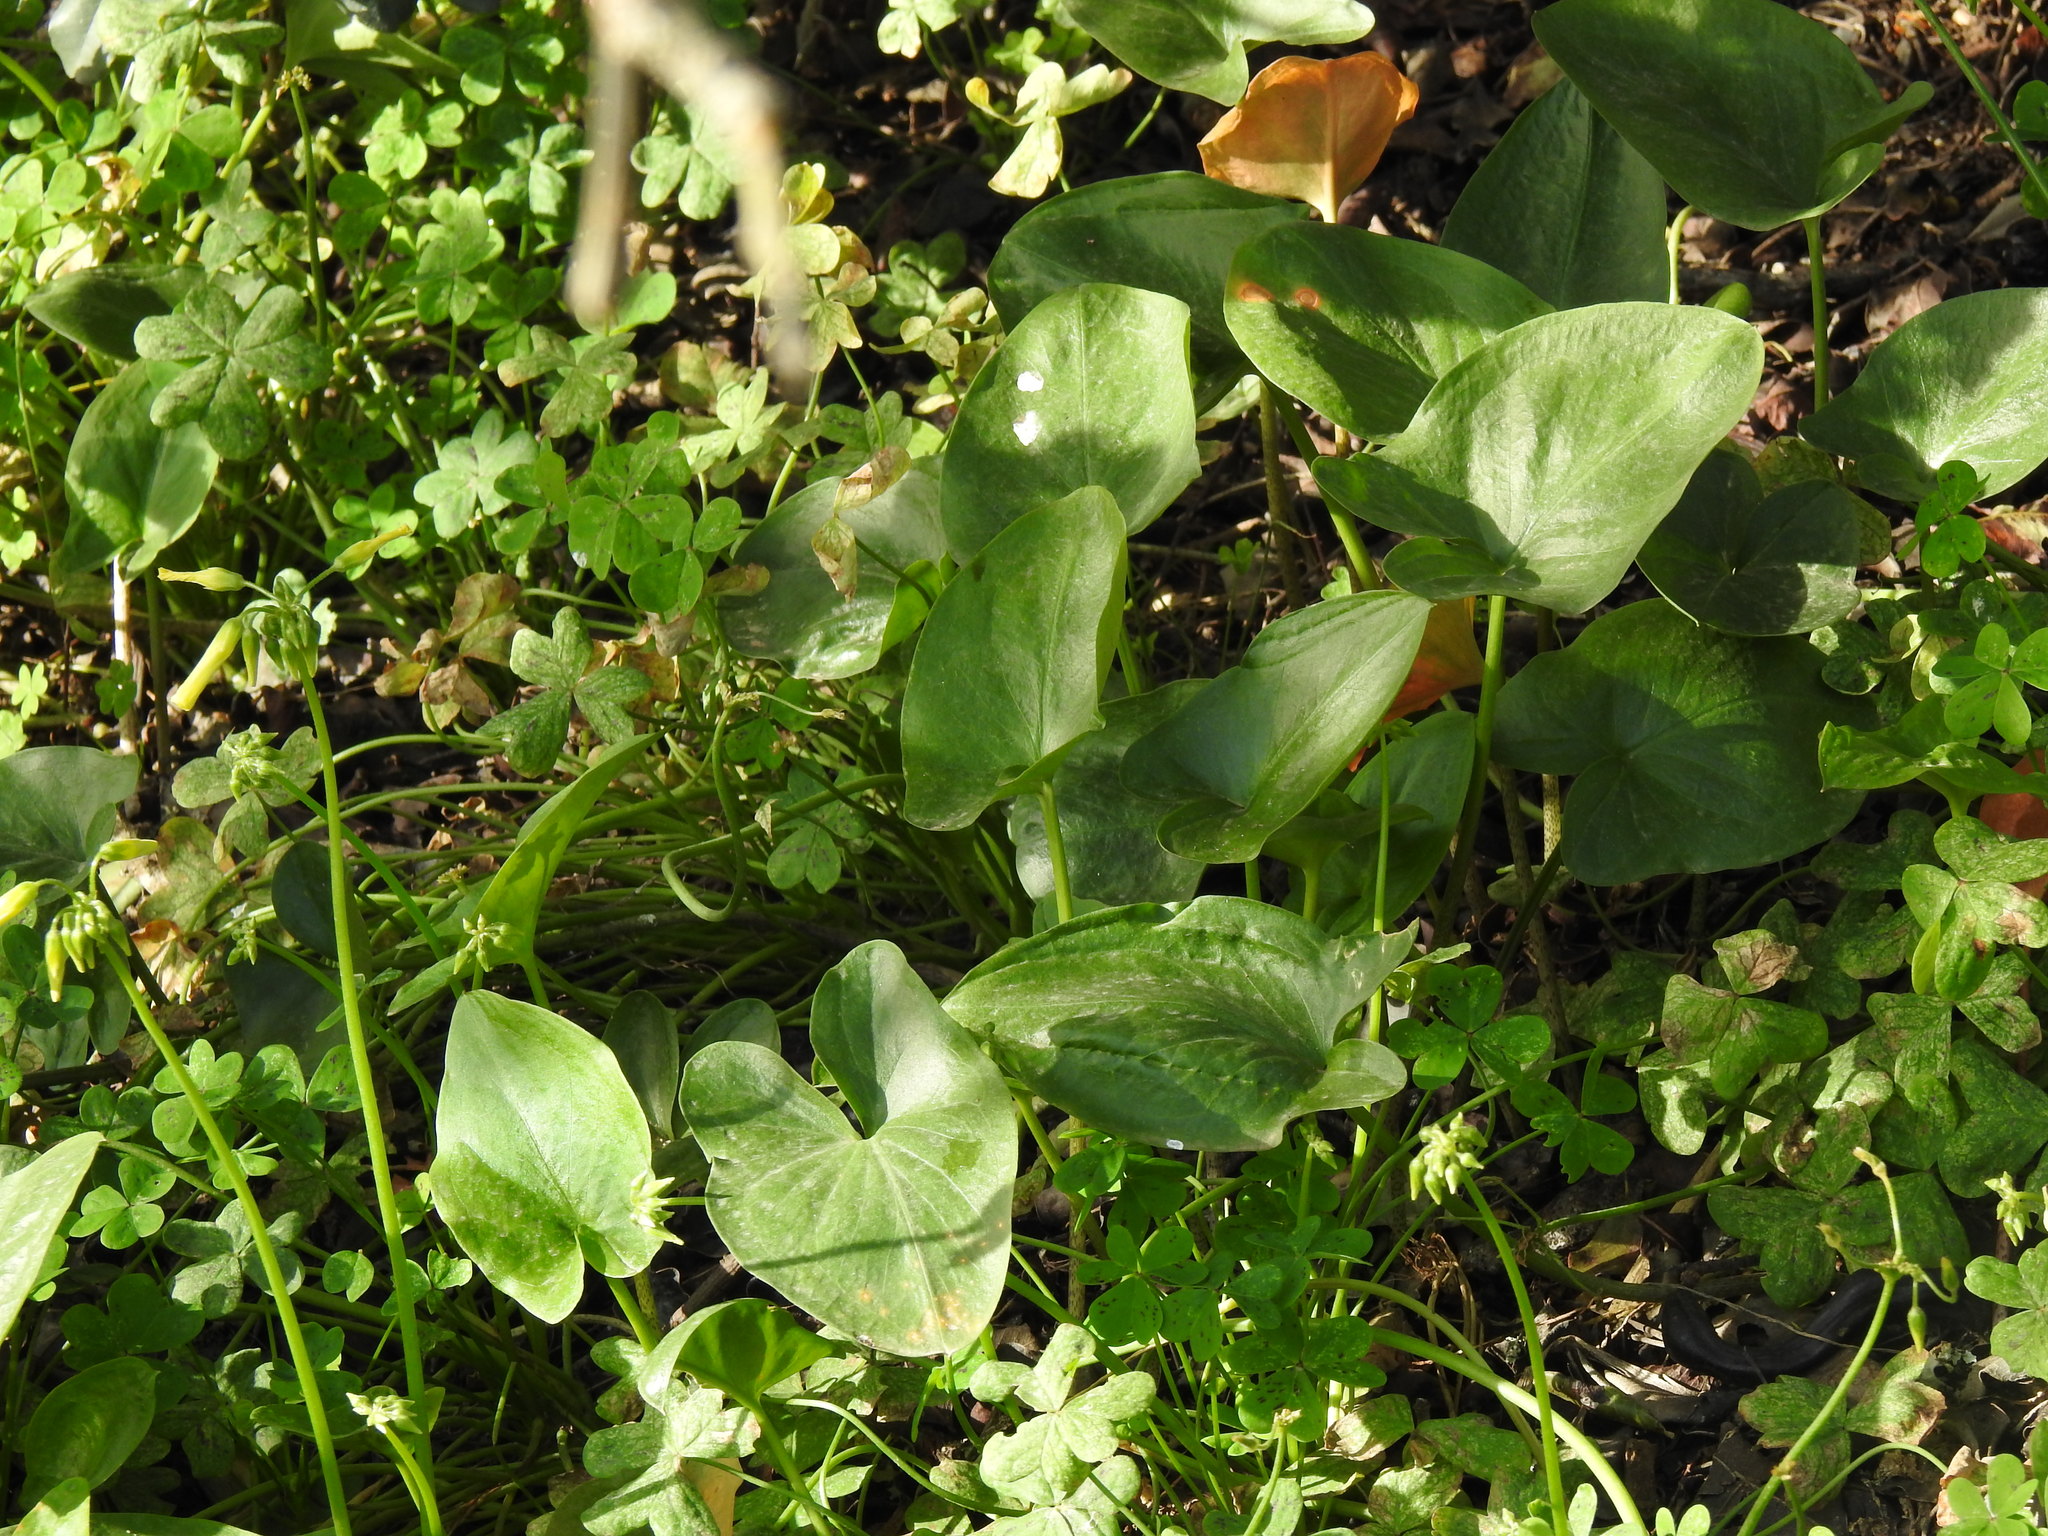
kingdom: Plantae
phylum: Tracheophyta
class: Liliopsida
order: Alismatales
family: Araceae
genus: Arisarum
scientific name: Arisarum simorrhinum
